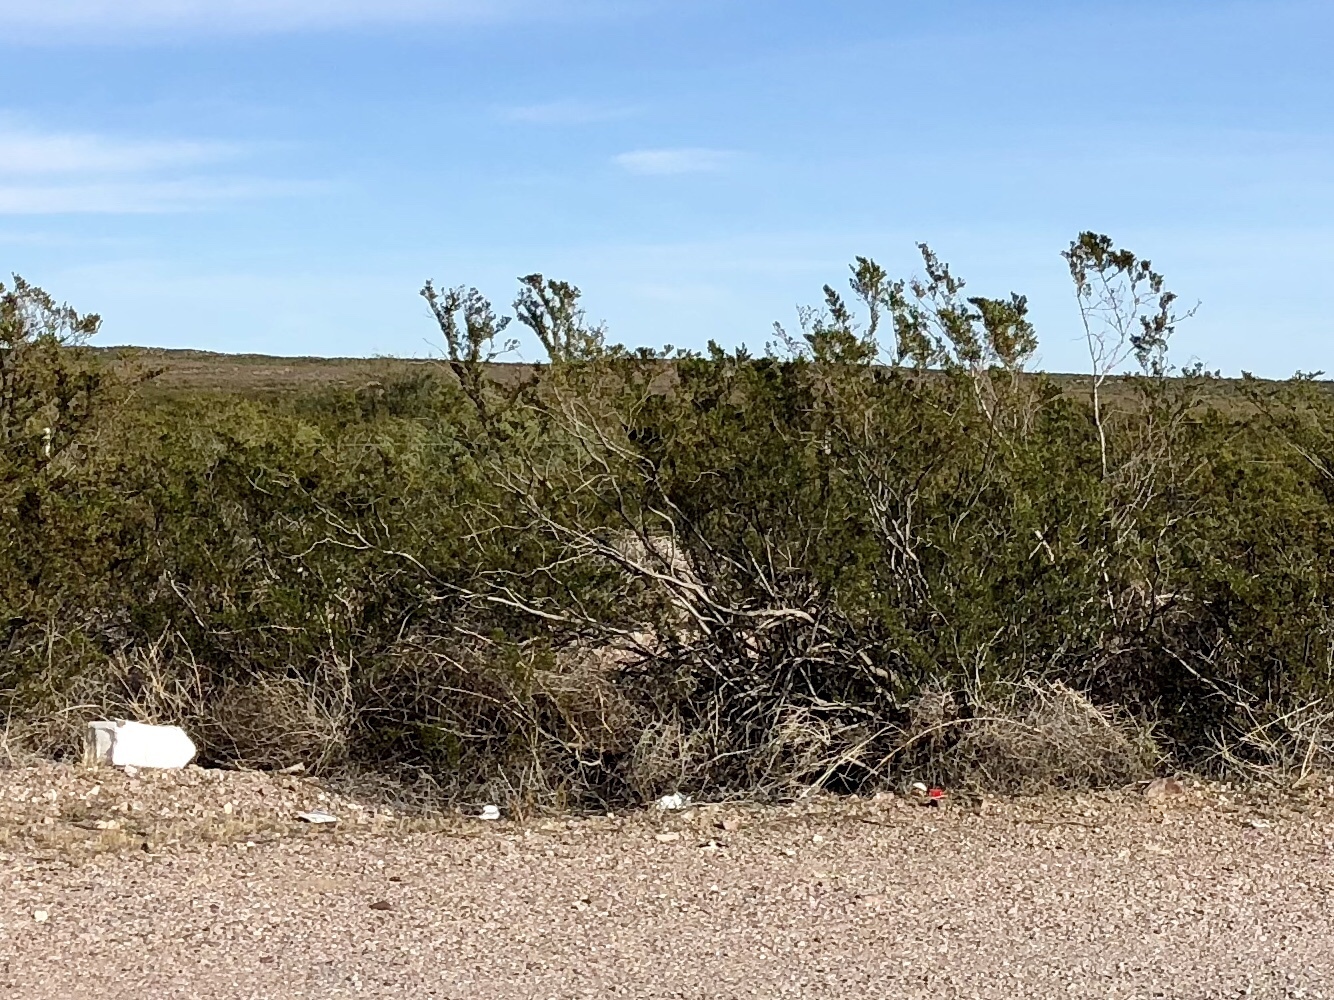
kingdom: Plantae
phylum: Tracheophyta
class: Magnoliopsida
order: Zygophyllales
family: Zygophyllaceae
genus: Larrea
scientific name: Larrea tridentata
